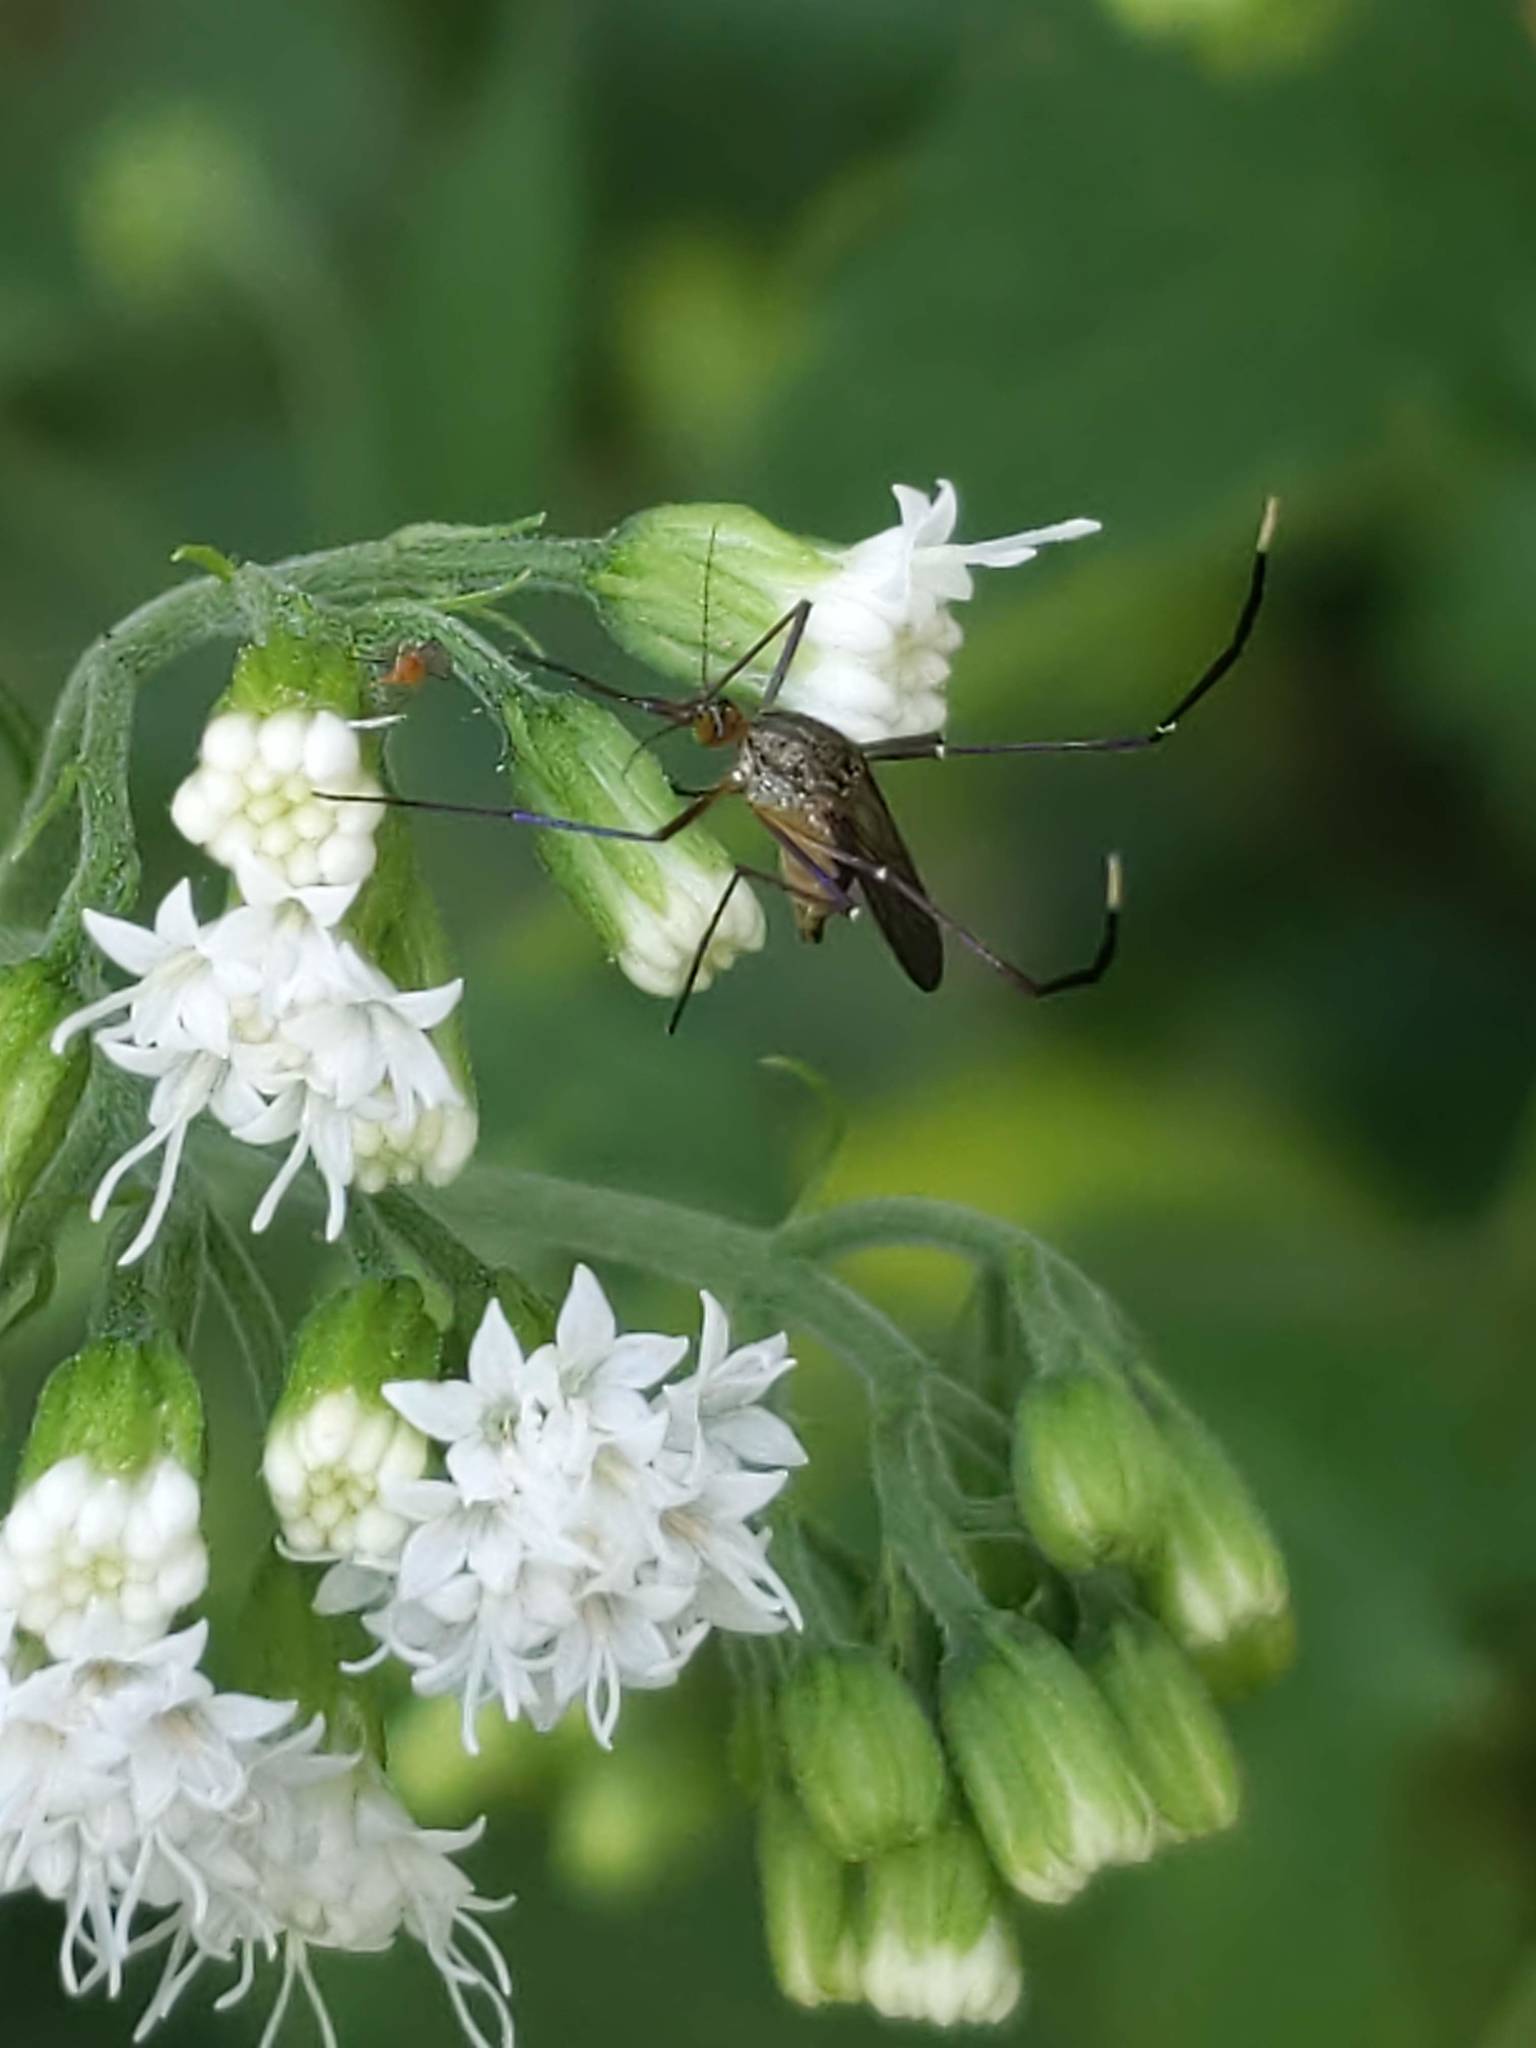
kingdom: Animalia
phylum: Arthropoda
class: Insecta
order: Diptera
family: Culicidae
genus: Psorophora
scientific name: Psorophora ferox
